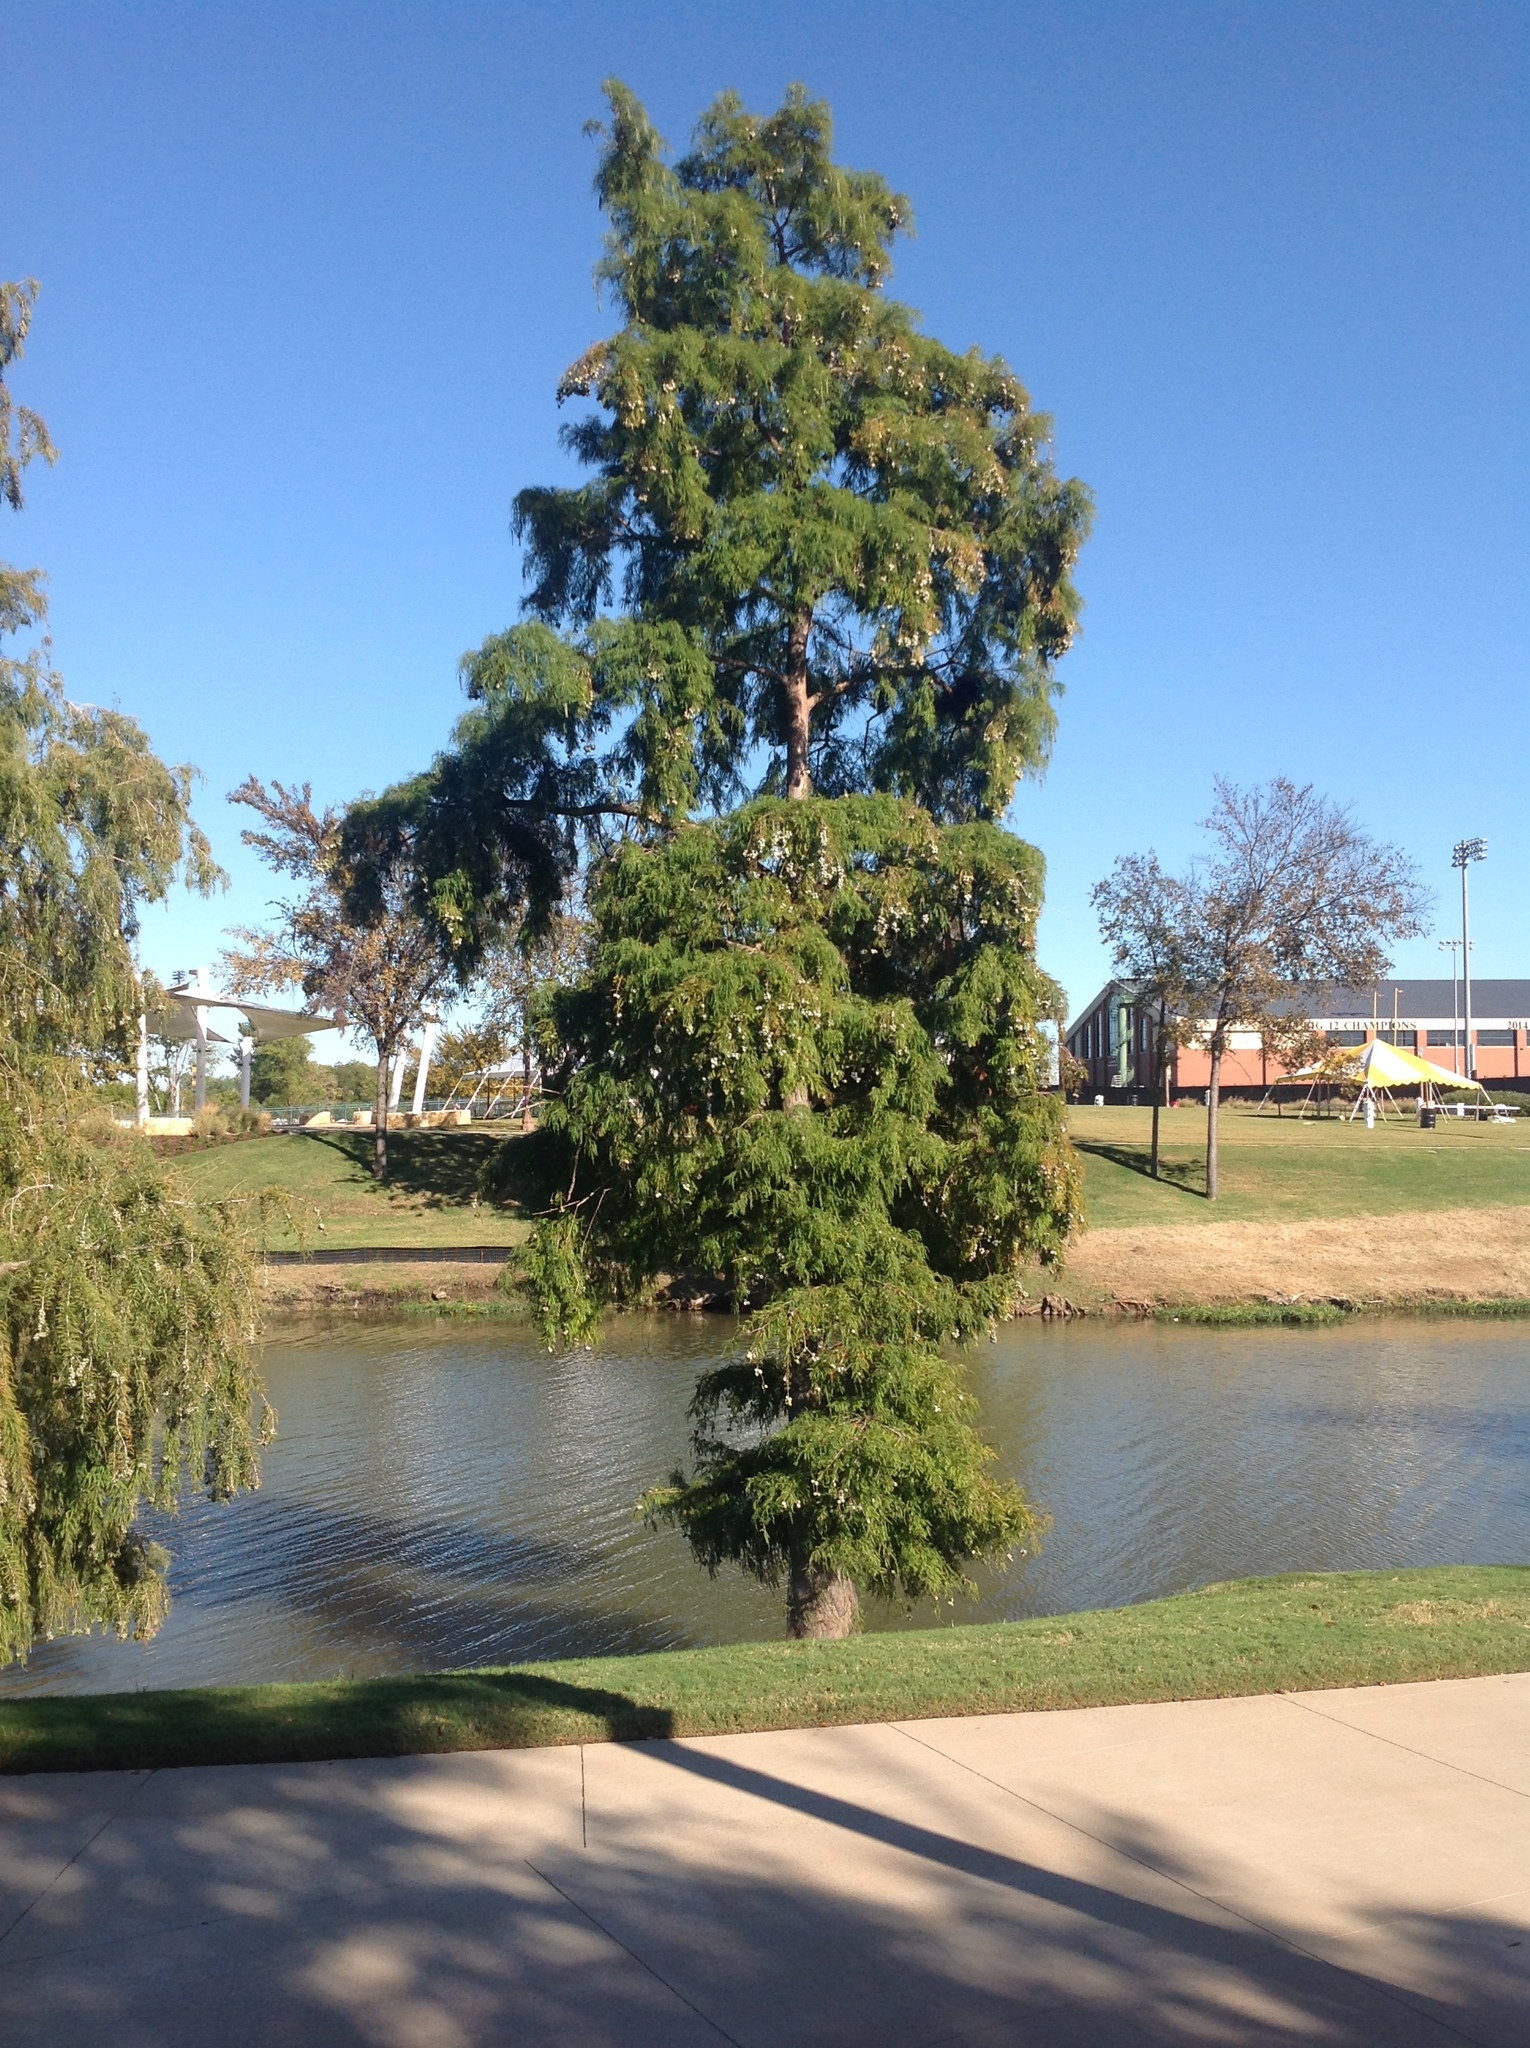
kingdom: Plantae
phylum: Tracheophyta
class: Pinopsida
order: Pinales
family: Cupressaceae
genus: Taxodium
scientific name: Taxodium distichum
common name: Bald cypress
